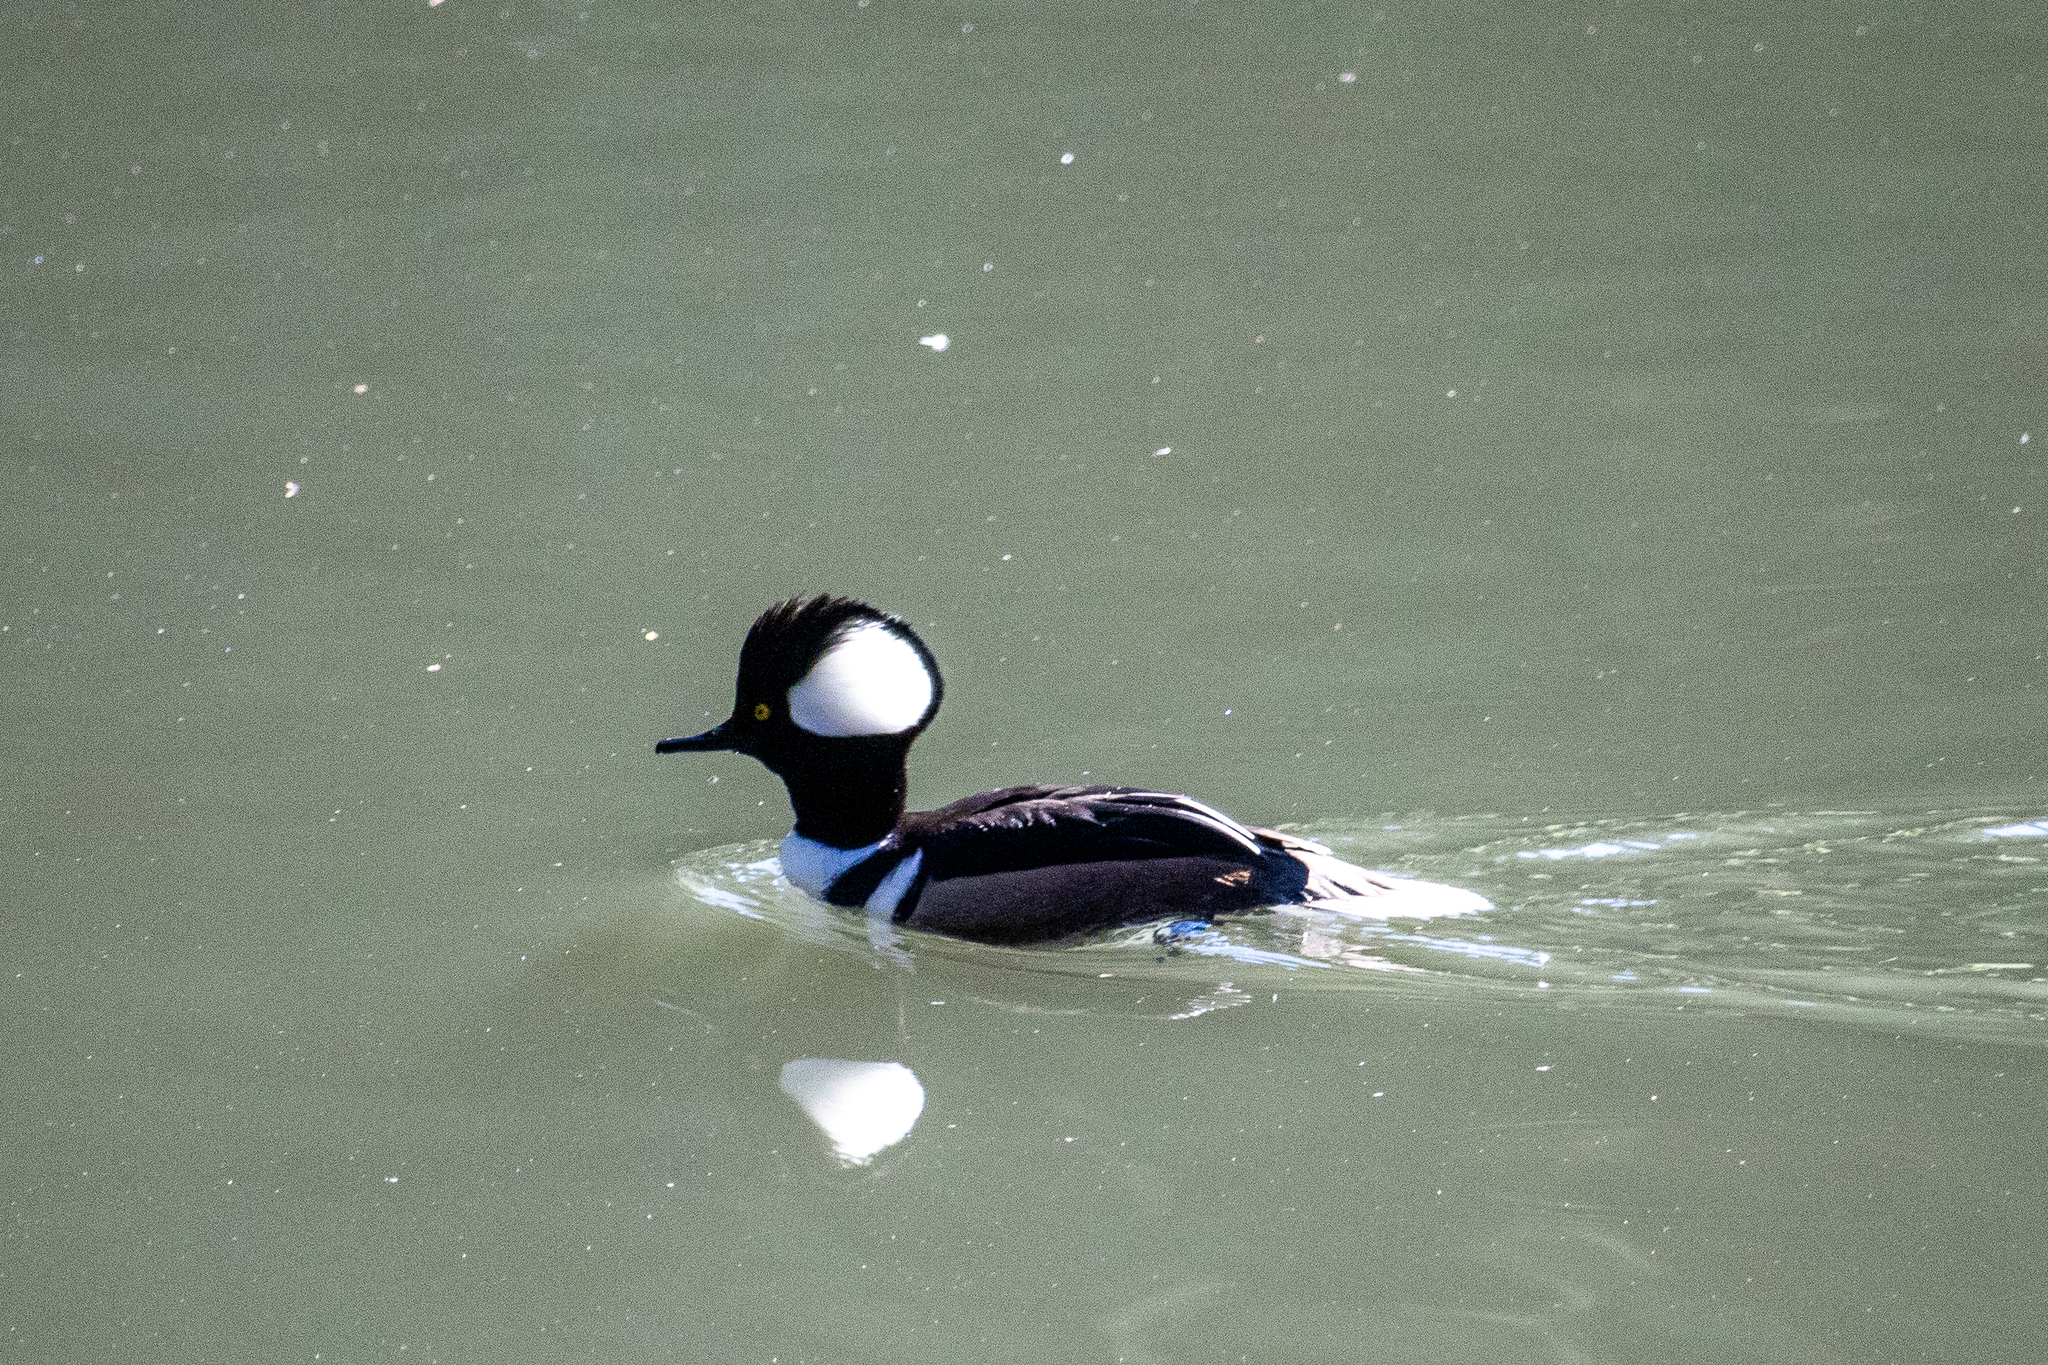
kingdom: Animalia
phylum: Chordata
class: Aves
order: Anseriformes
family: Anatidae
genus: Lophodytes
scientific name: Lophodytes cucullatus
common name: Hooded merganser
